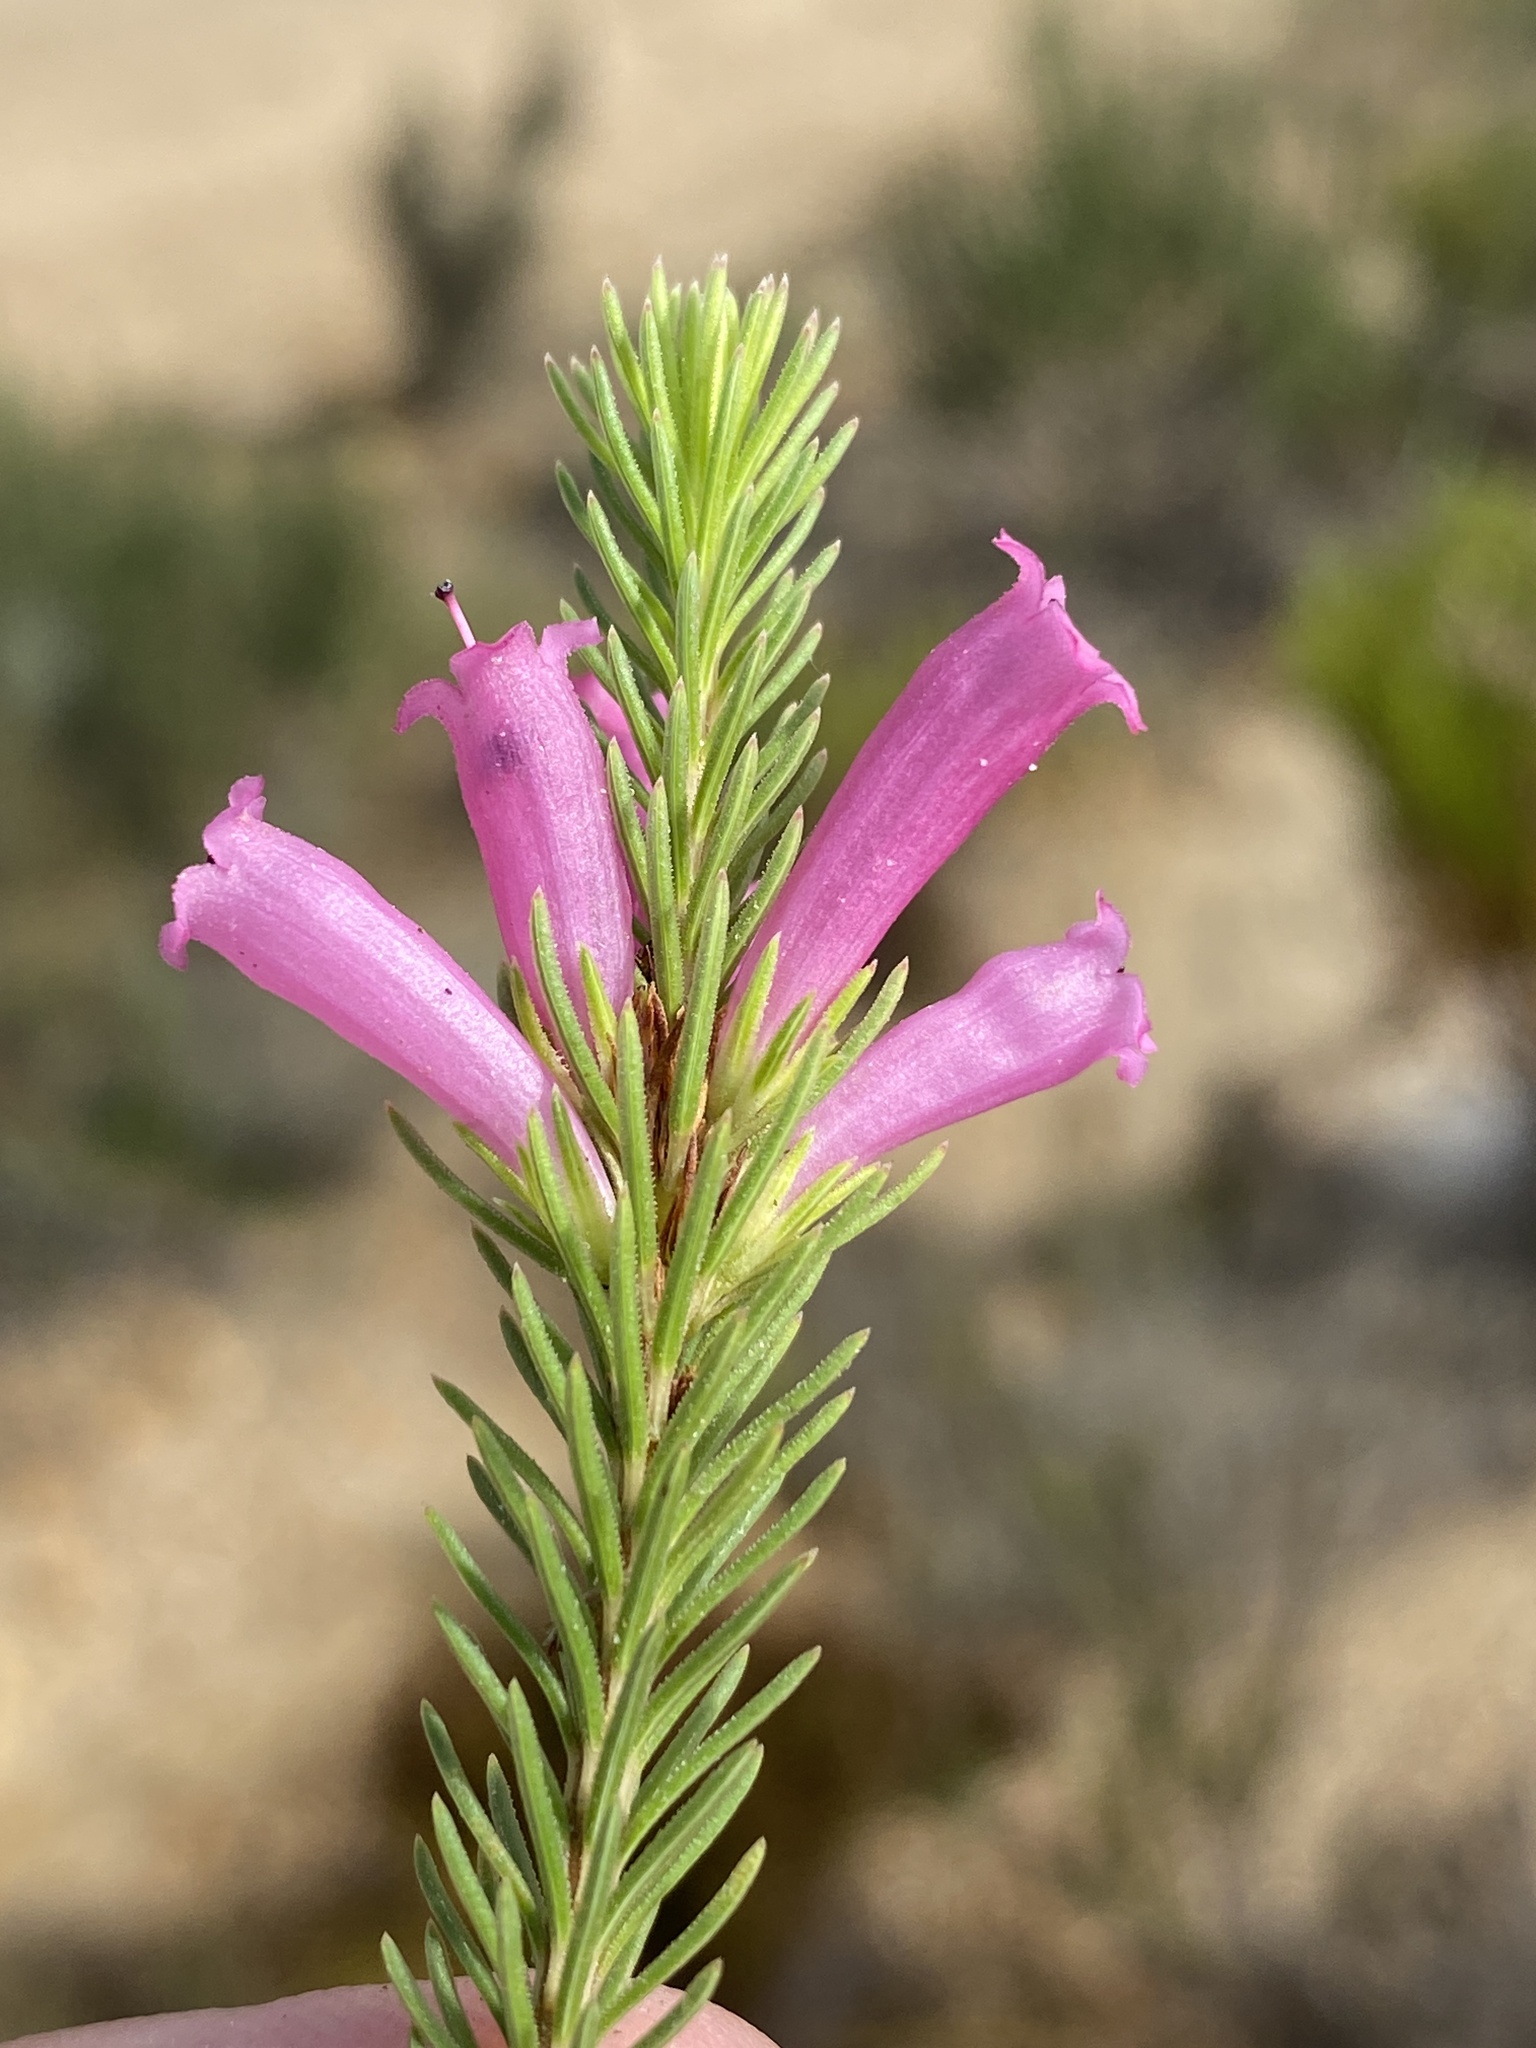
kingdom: Plantae
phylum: Tracheophyta
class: Magnoliopsida
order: Ericales
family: Ericaceae
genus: Erica
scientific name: Erica vestita
